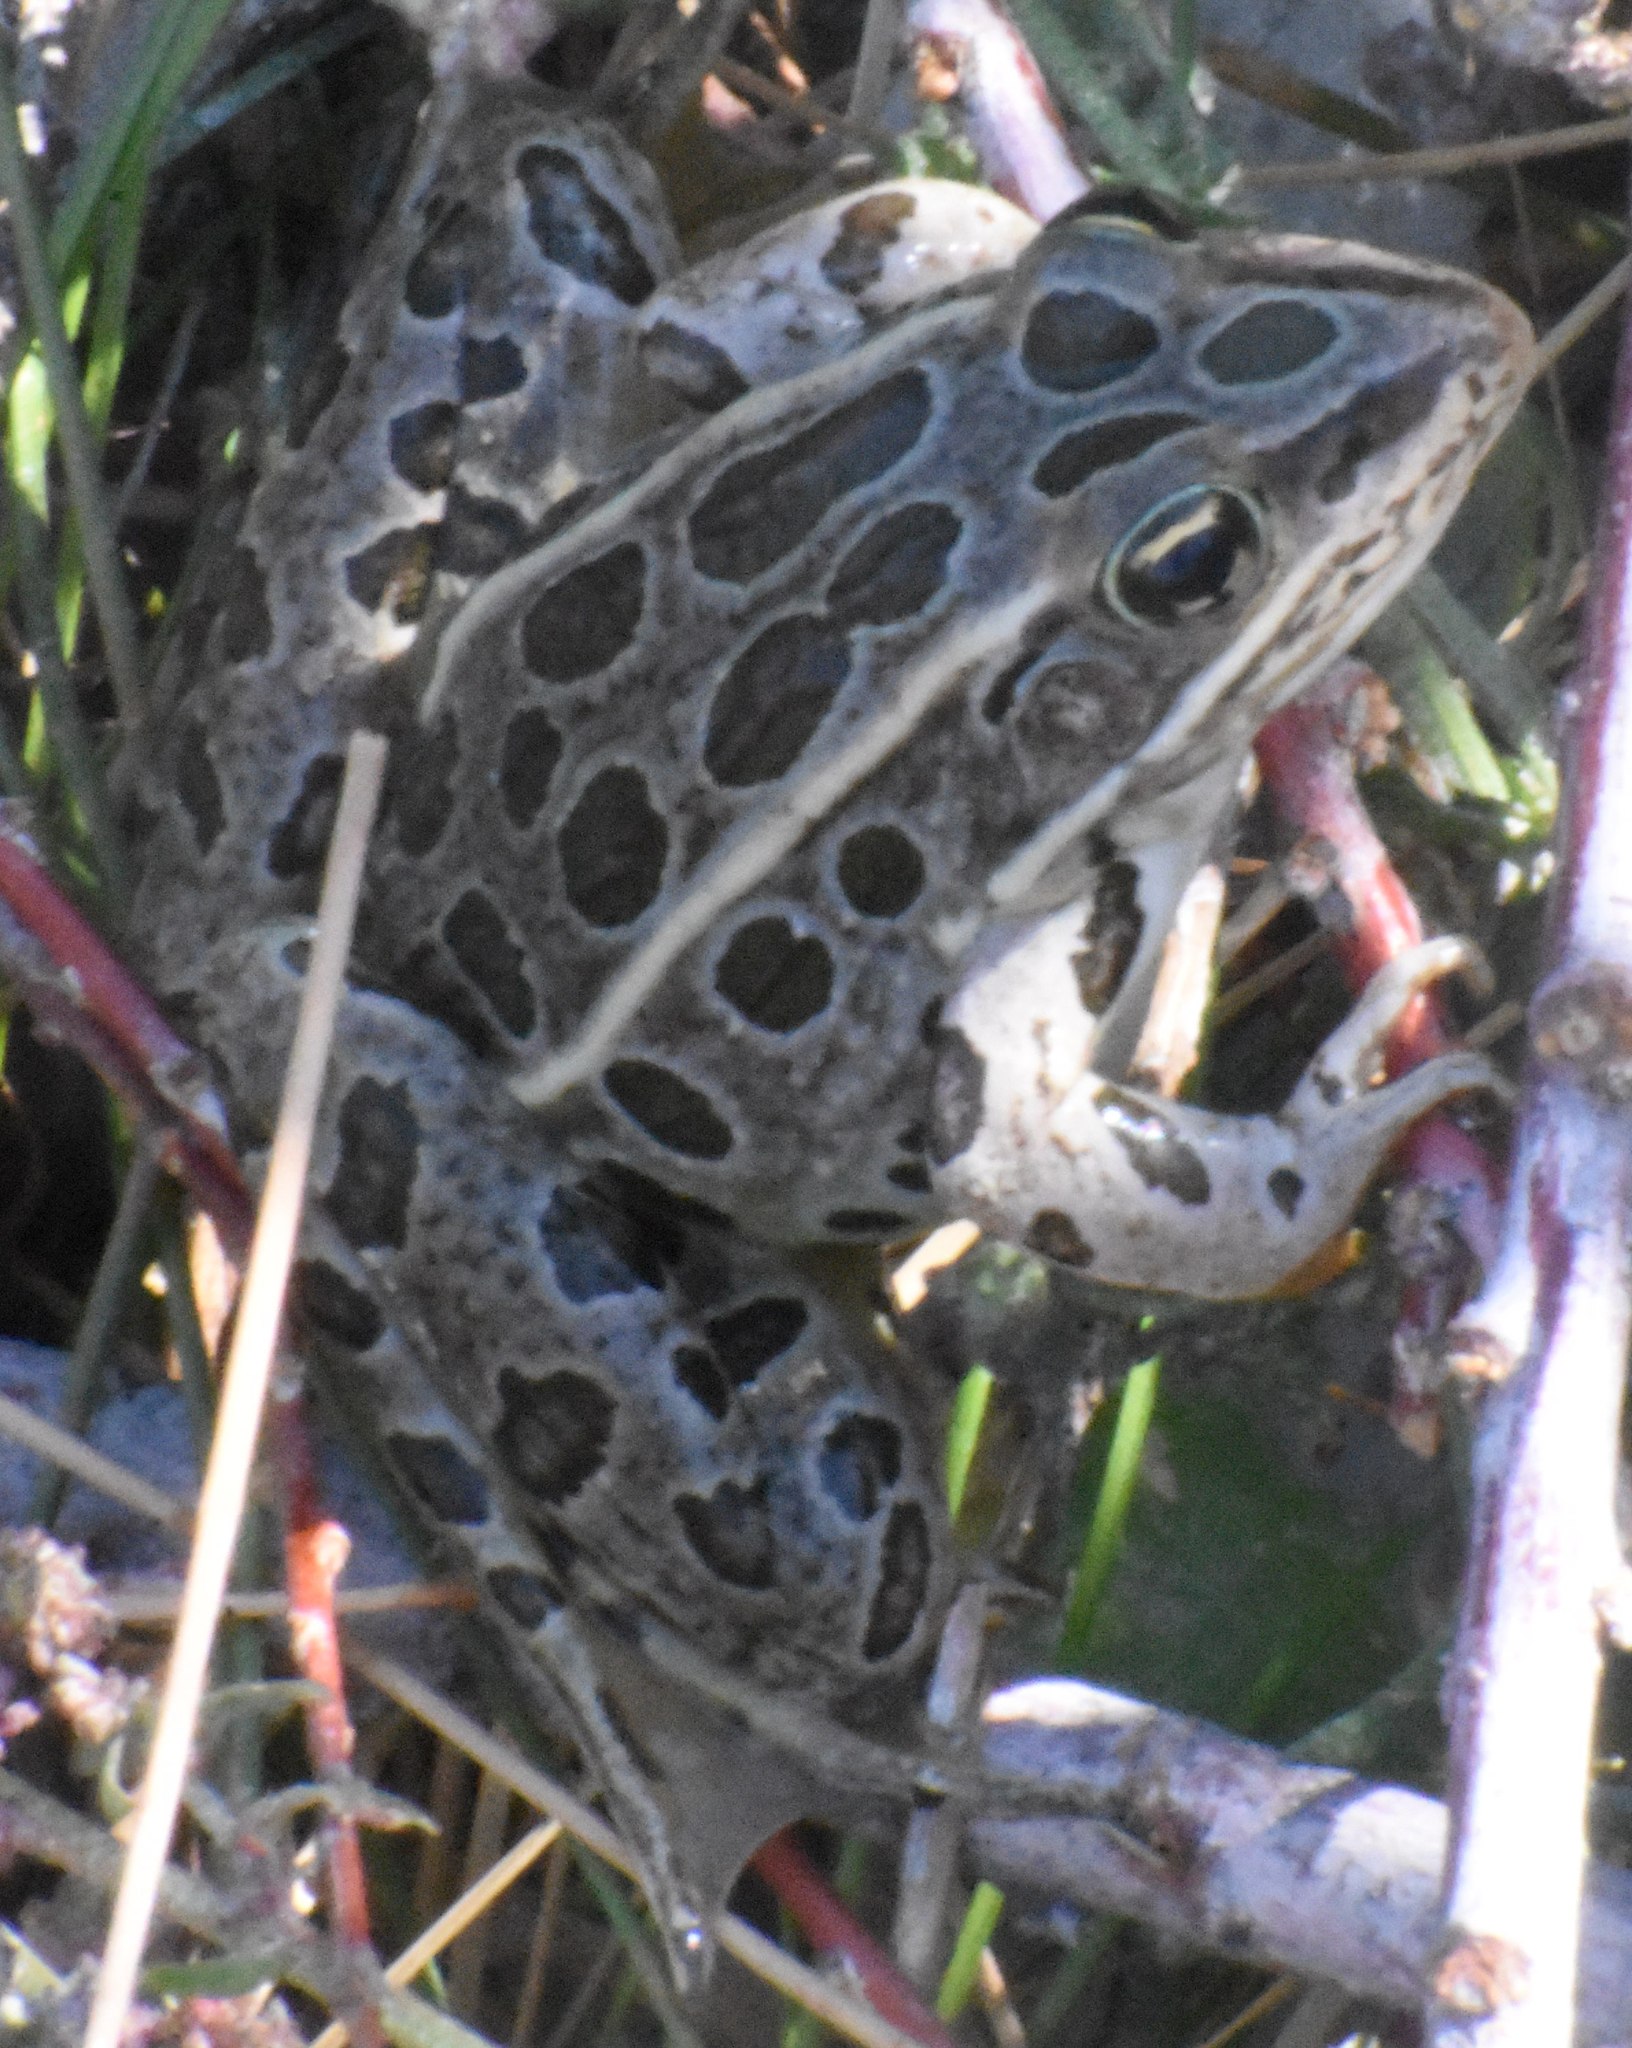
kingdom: Animalia
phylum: Chordata
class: Amphibia
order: Anura
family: Ranidae
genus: Lithobates
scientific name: Lithobates pipiens
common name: Northern leopard frog
